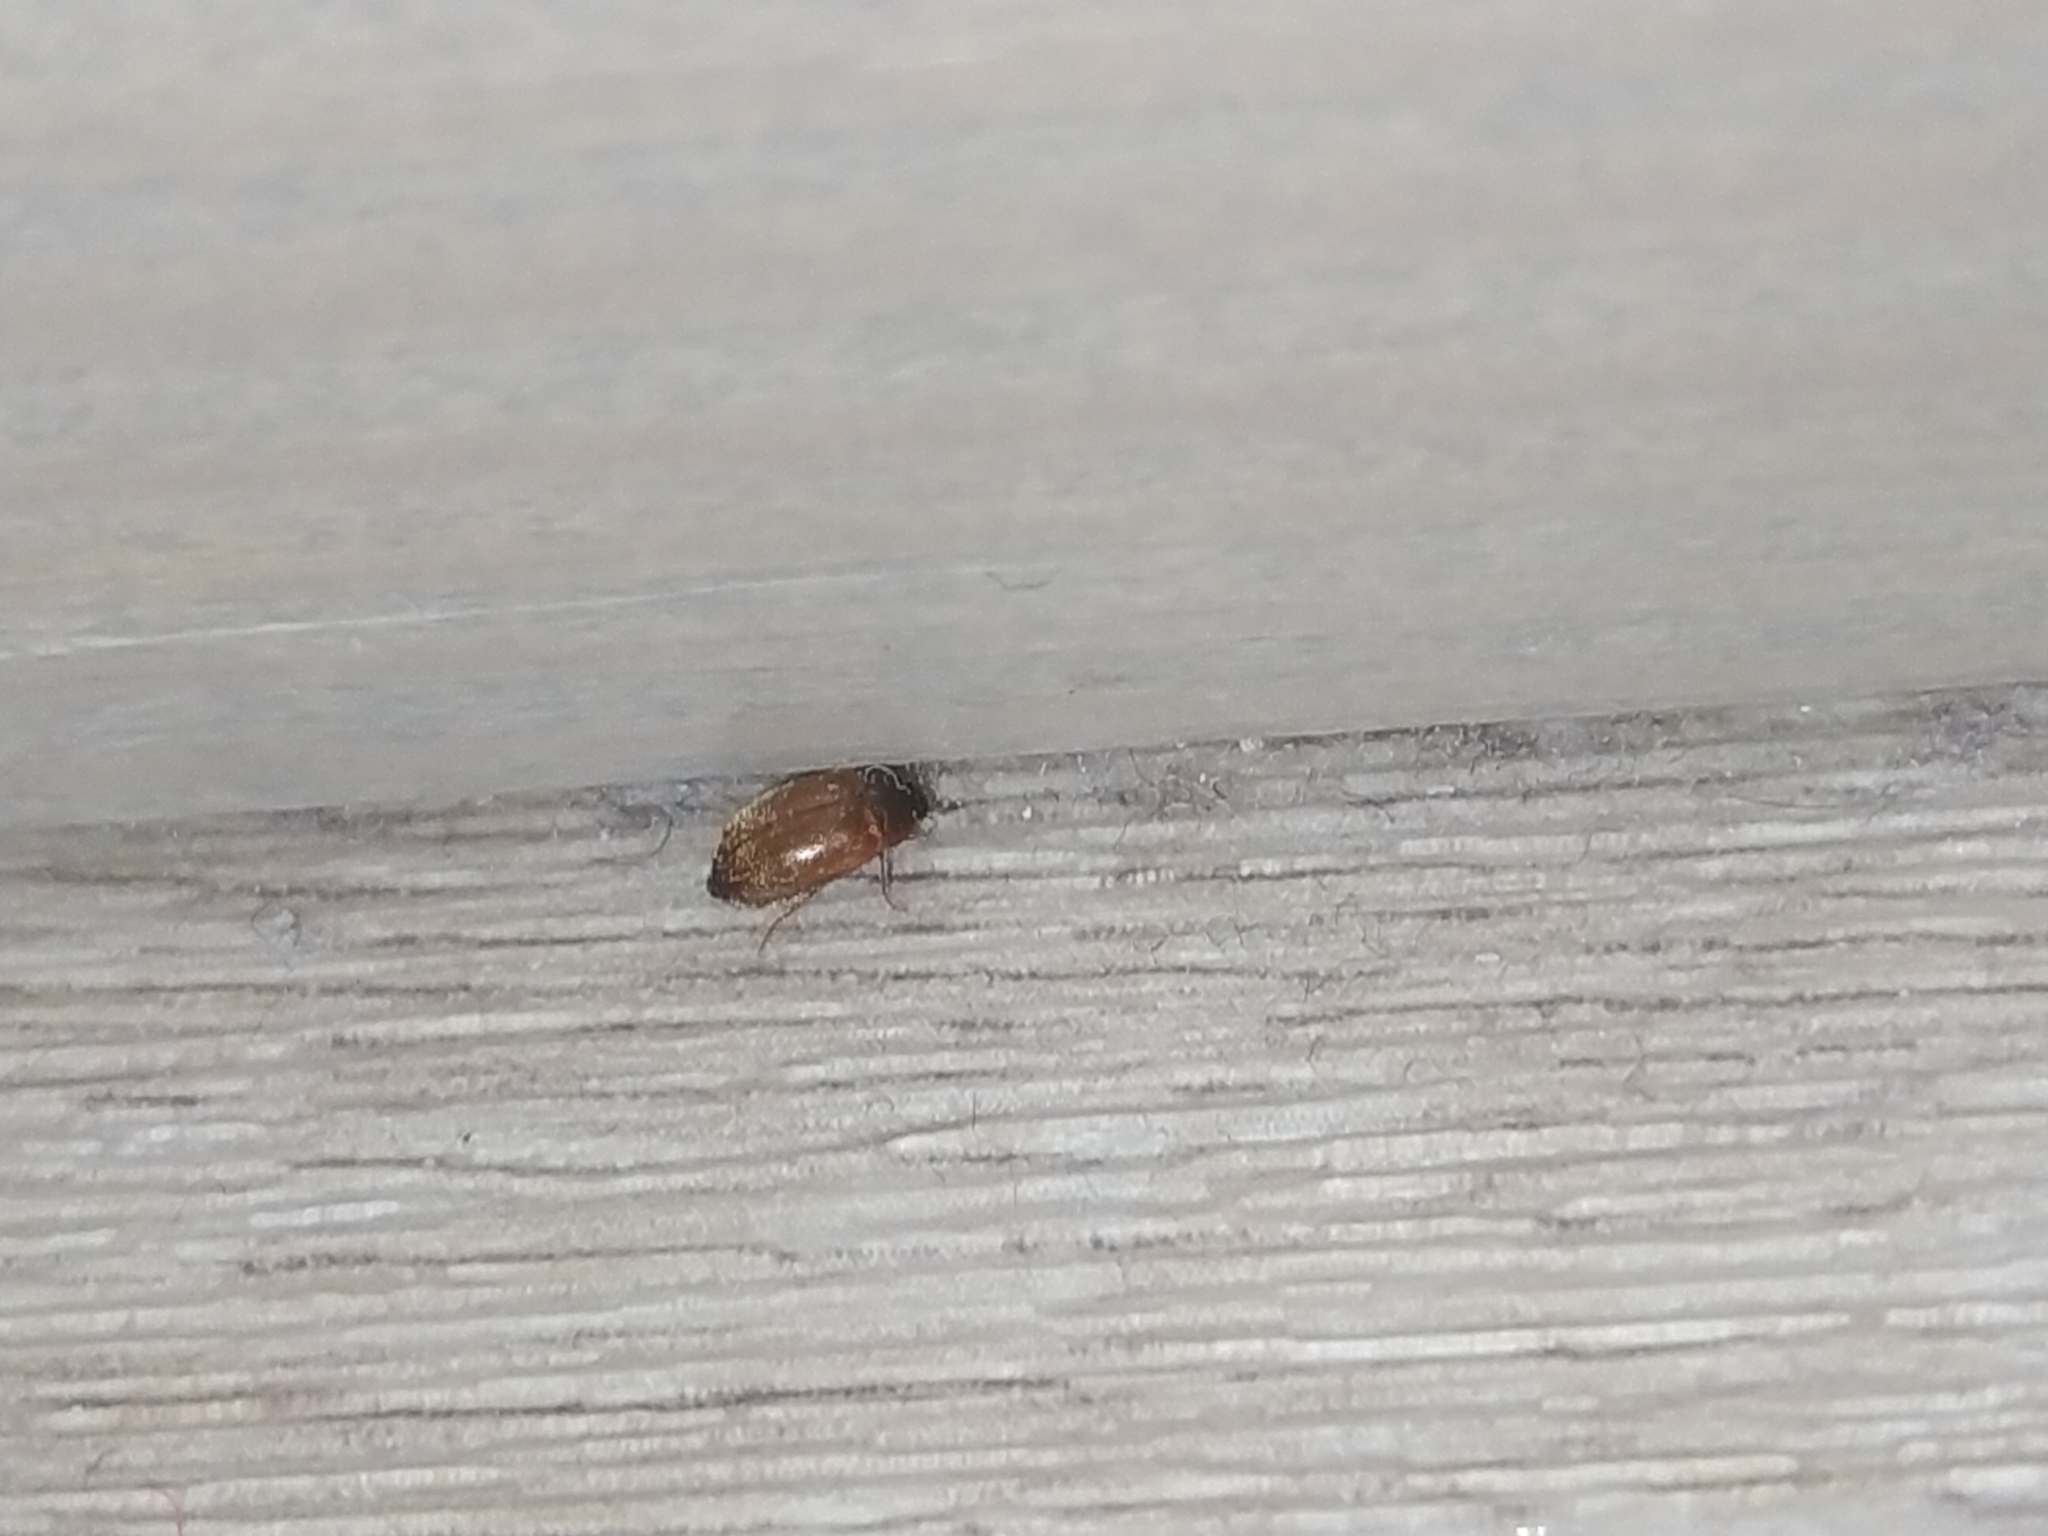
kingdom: Animalia
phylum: Arthropoda
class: Insecta
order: Coleoptera
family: Dermestidae
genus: Attagenus
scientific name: Attagenus smirnovi
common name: Brown carpet beetle
